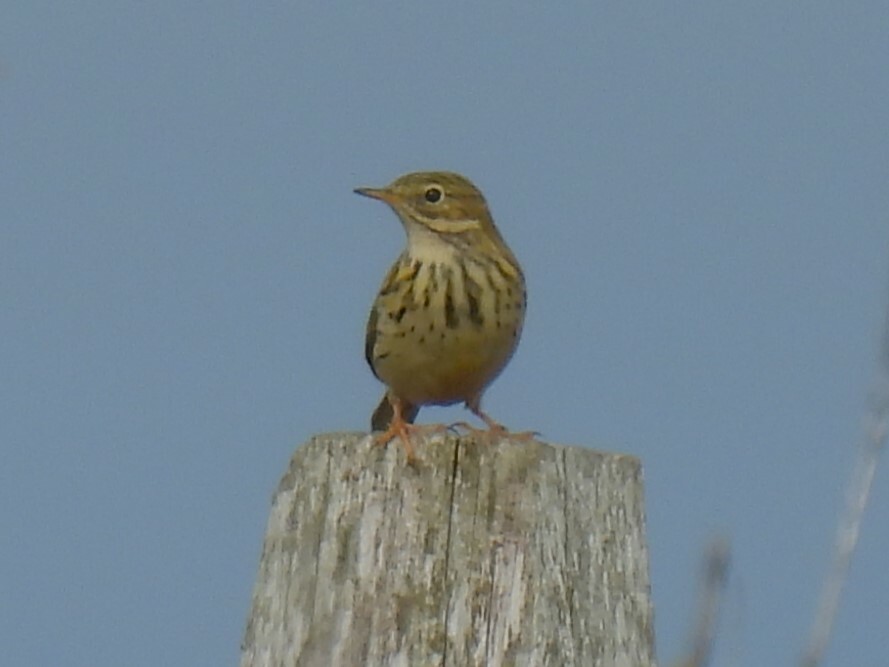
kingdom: Animalia
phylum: Chordata
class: Aves
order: Passeriformes
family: Motacillidae
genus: Anthus
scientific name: Anthus pratensis
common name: Meadow pipit
